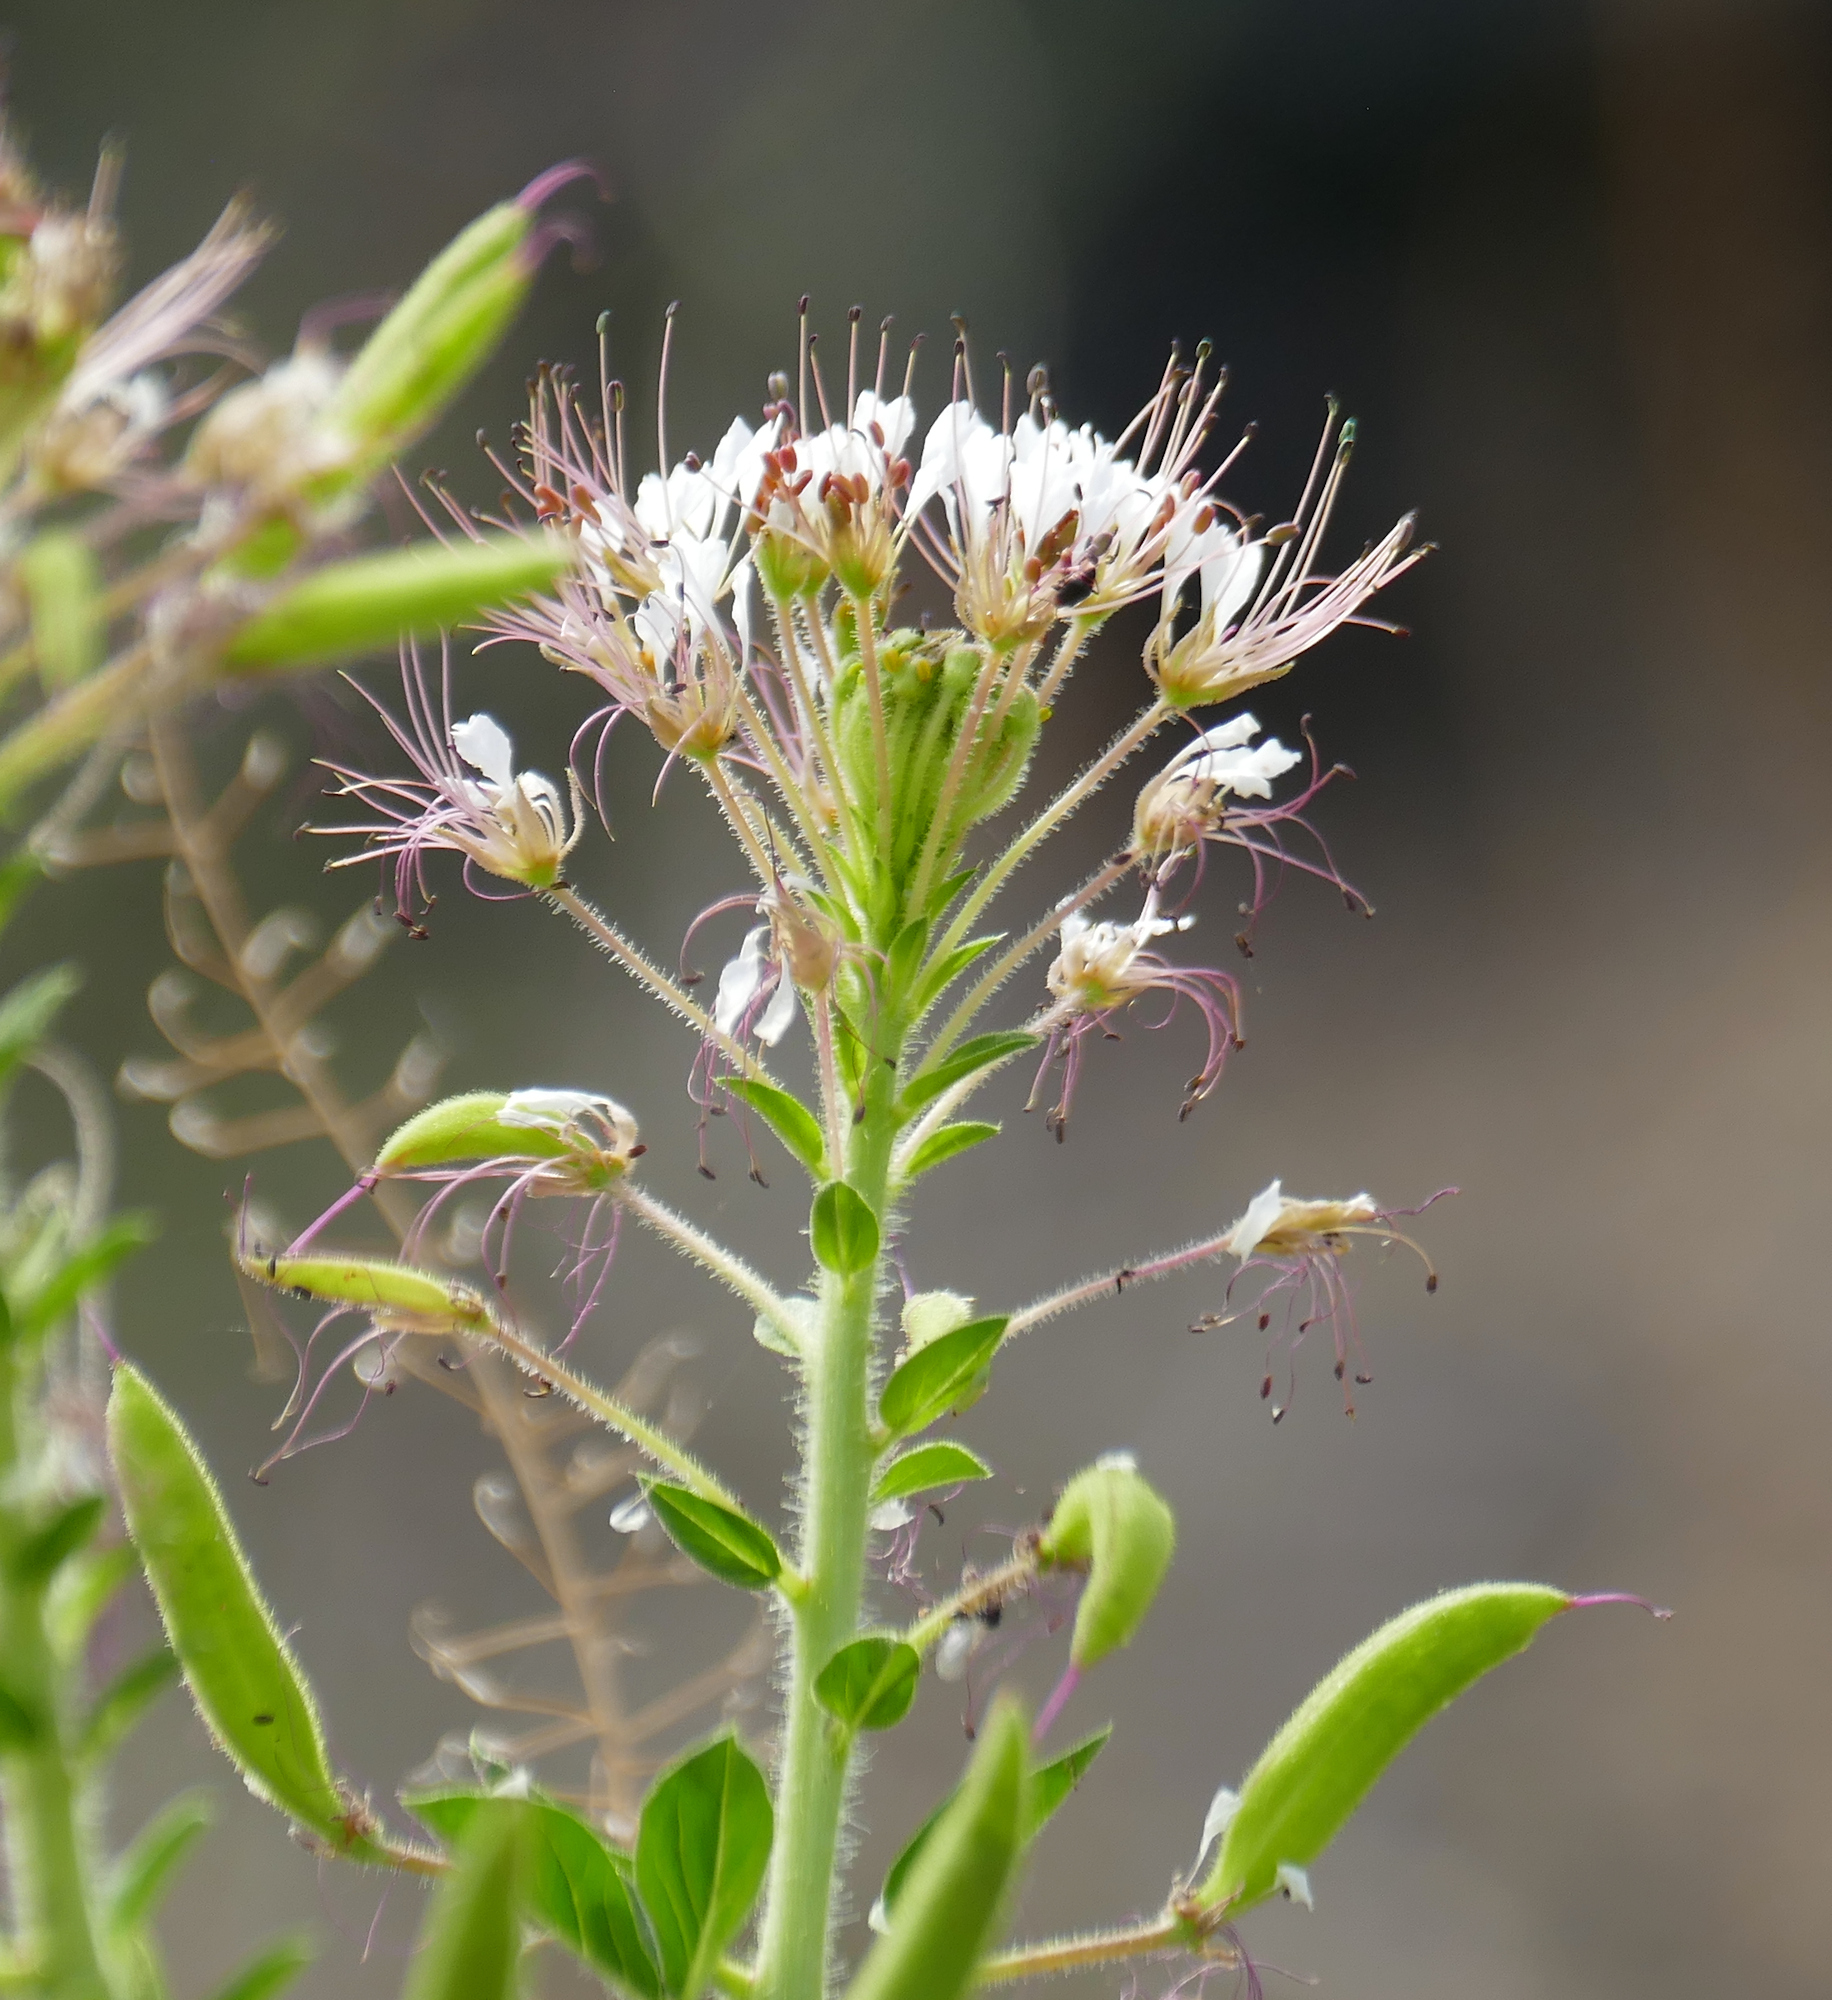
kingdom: Plantae
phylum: Tracheophyta
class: Magnoliopsida
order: Brassicales
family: Cleomaceae
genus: Polanisia
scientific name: Polanisia dodecandra
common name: Clammyweed
